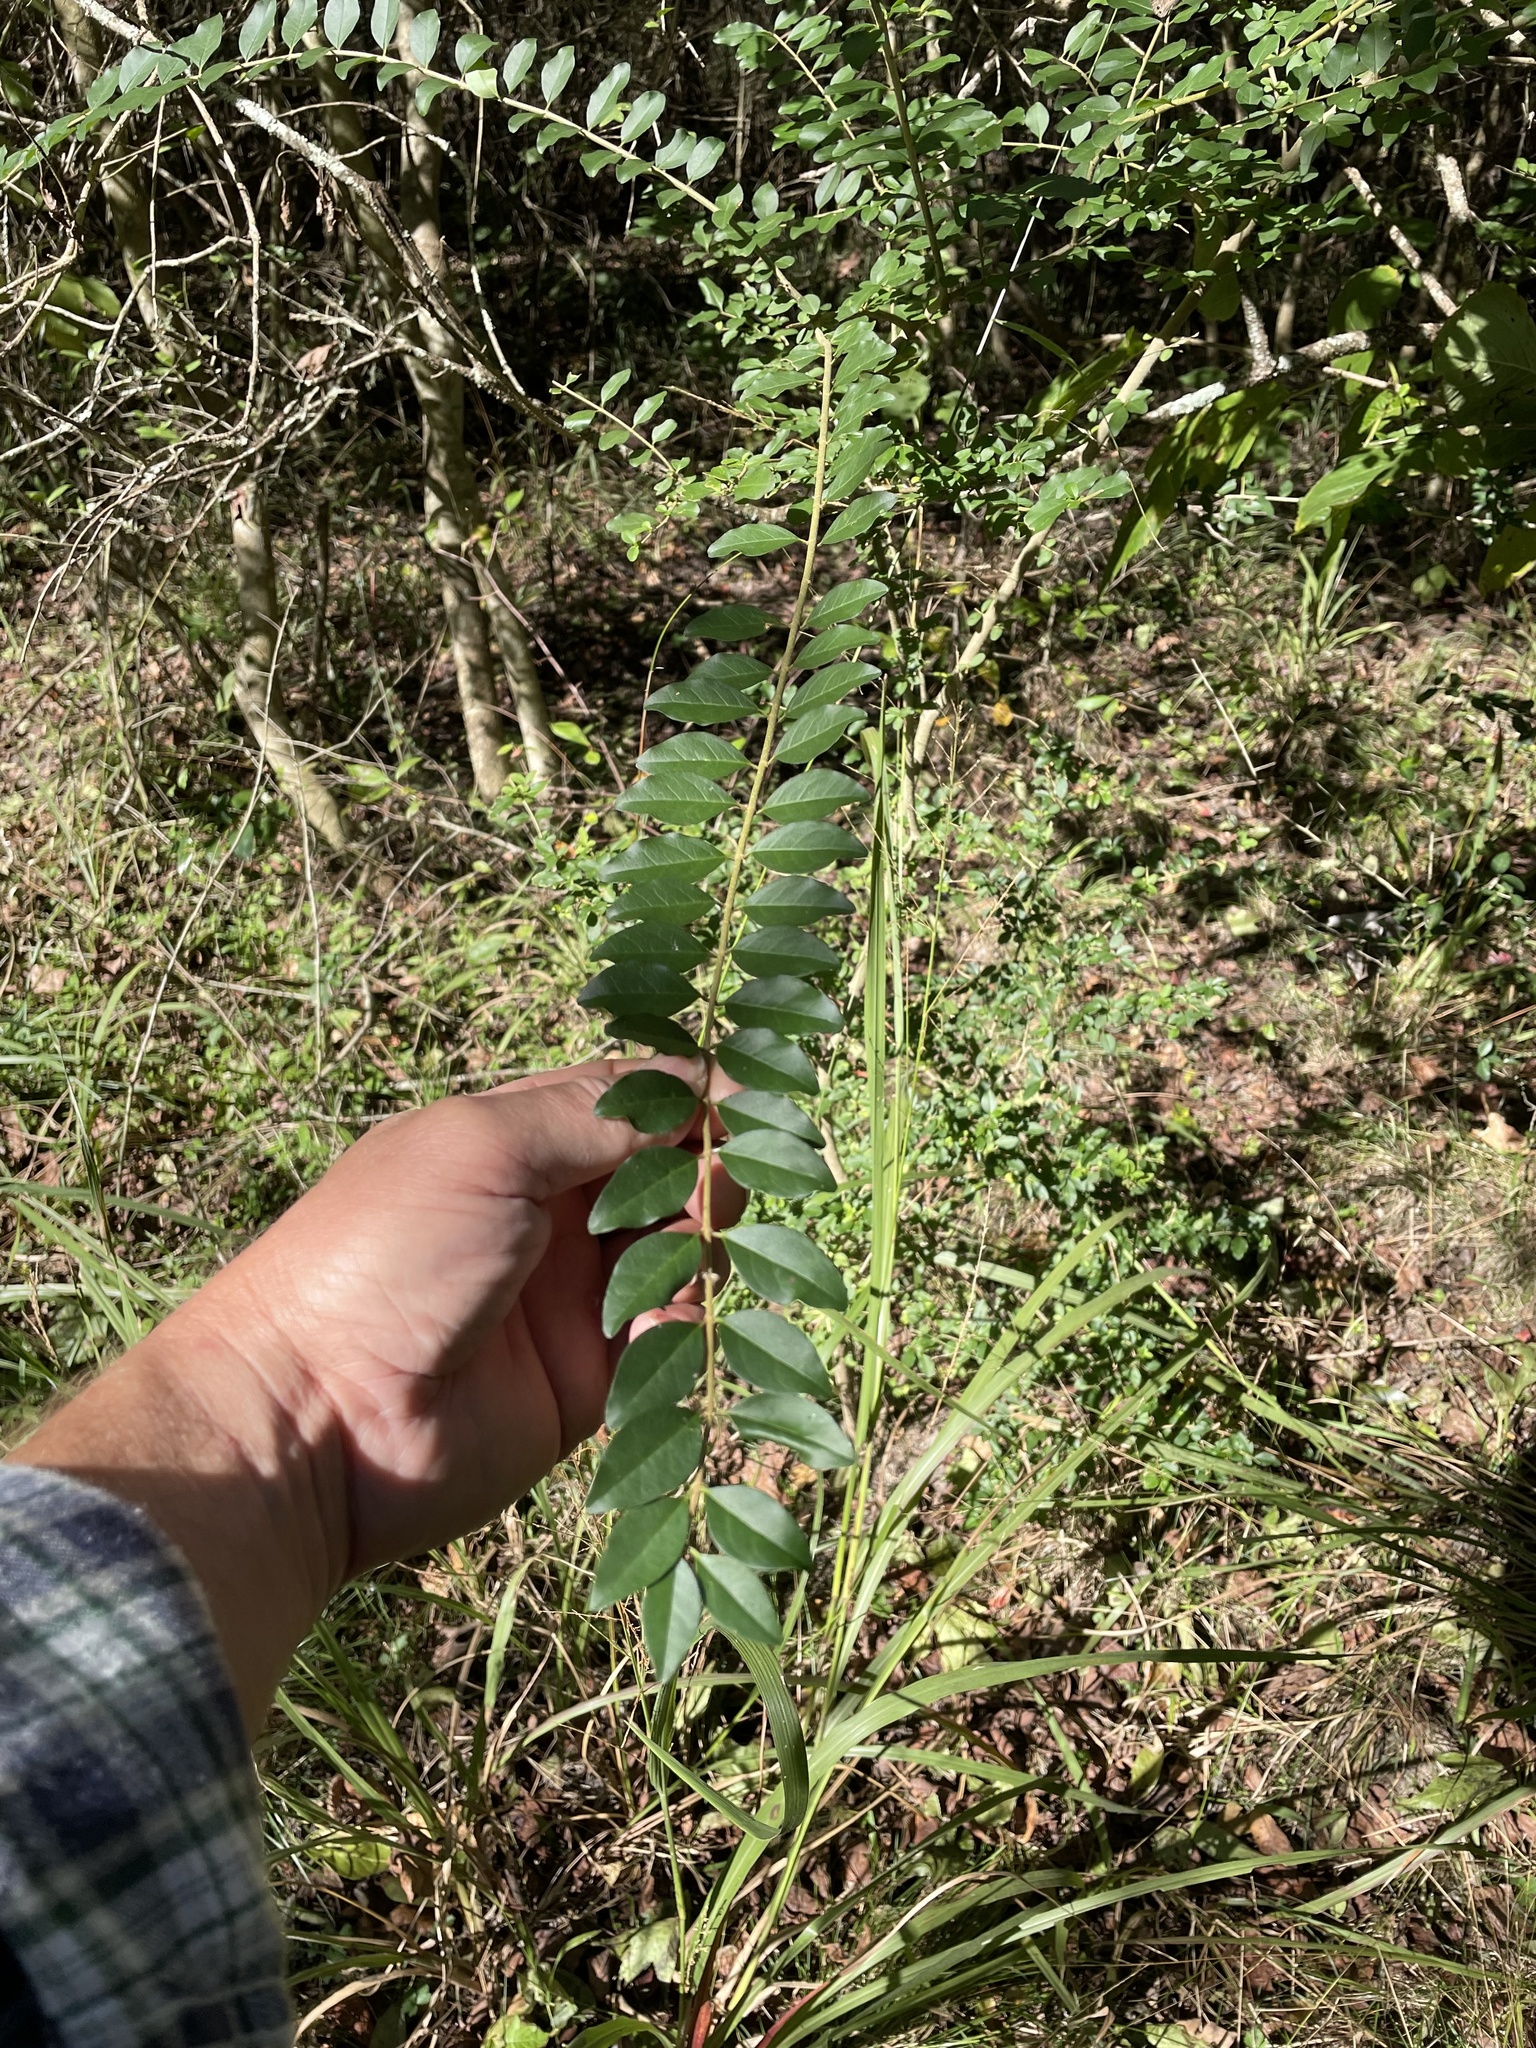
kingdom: Plantae
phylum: Tracheophyta
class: Magnoliopsida
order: Lamiales
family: Oleaceae
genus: Ligustrum
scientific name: Ligustrum sinense
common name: Chinese privet
